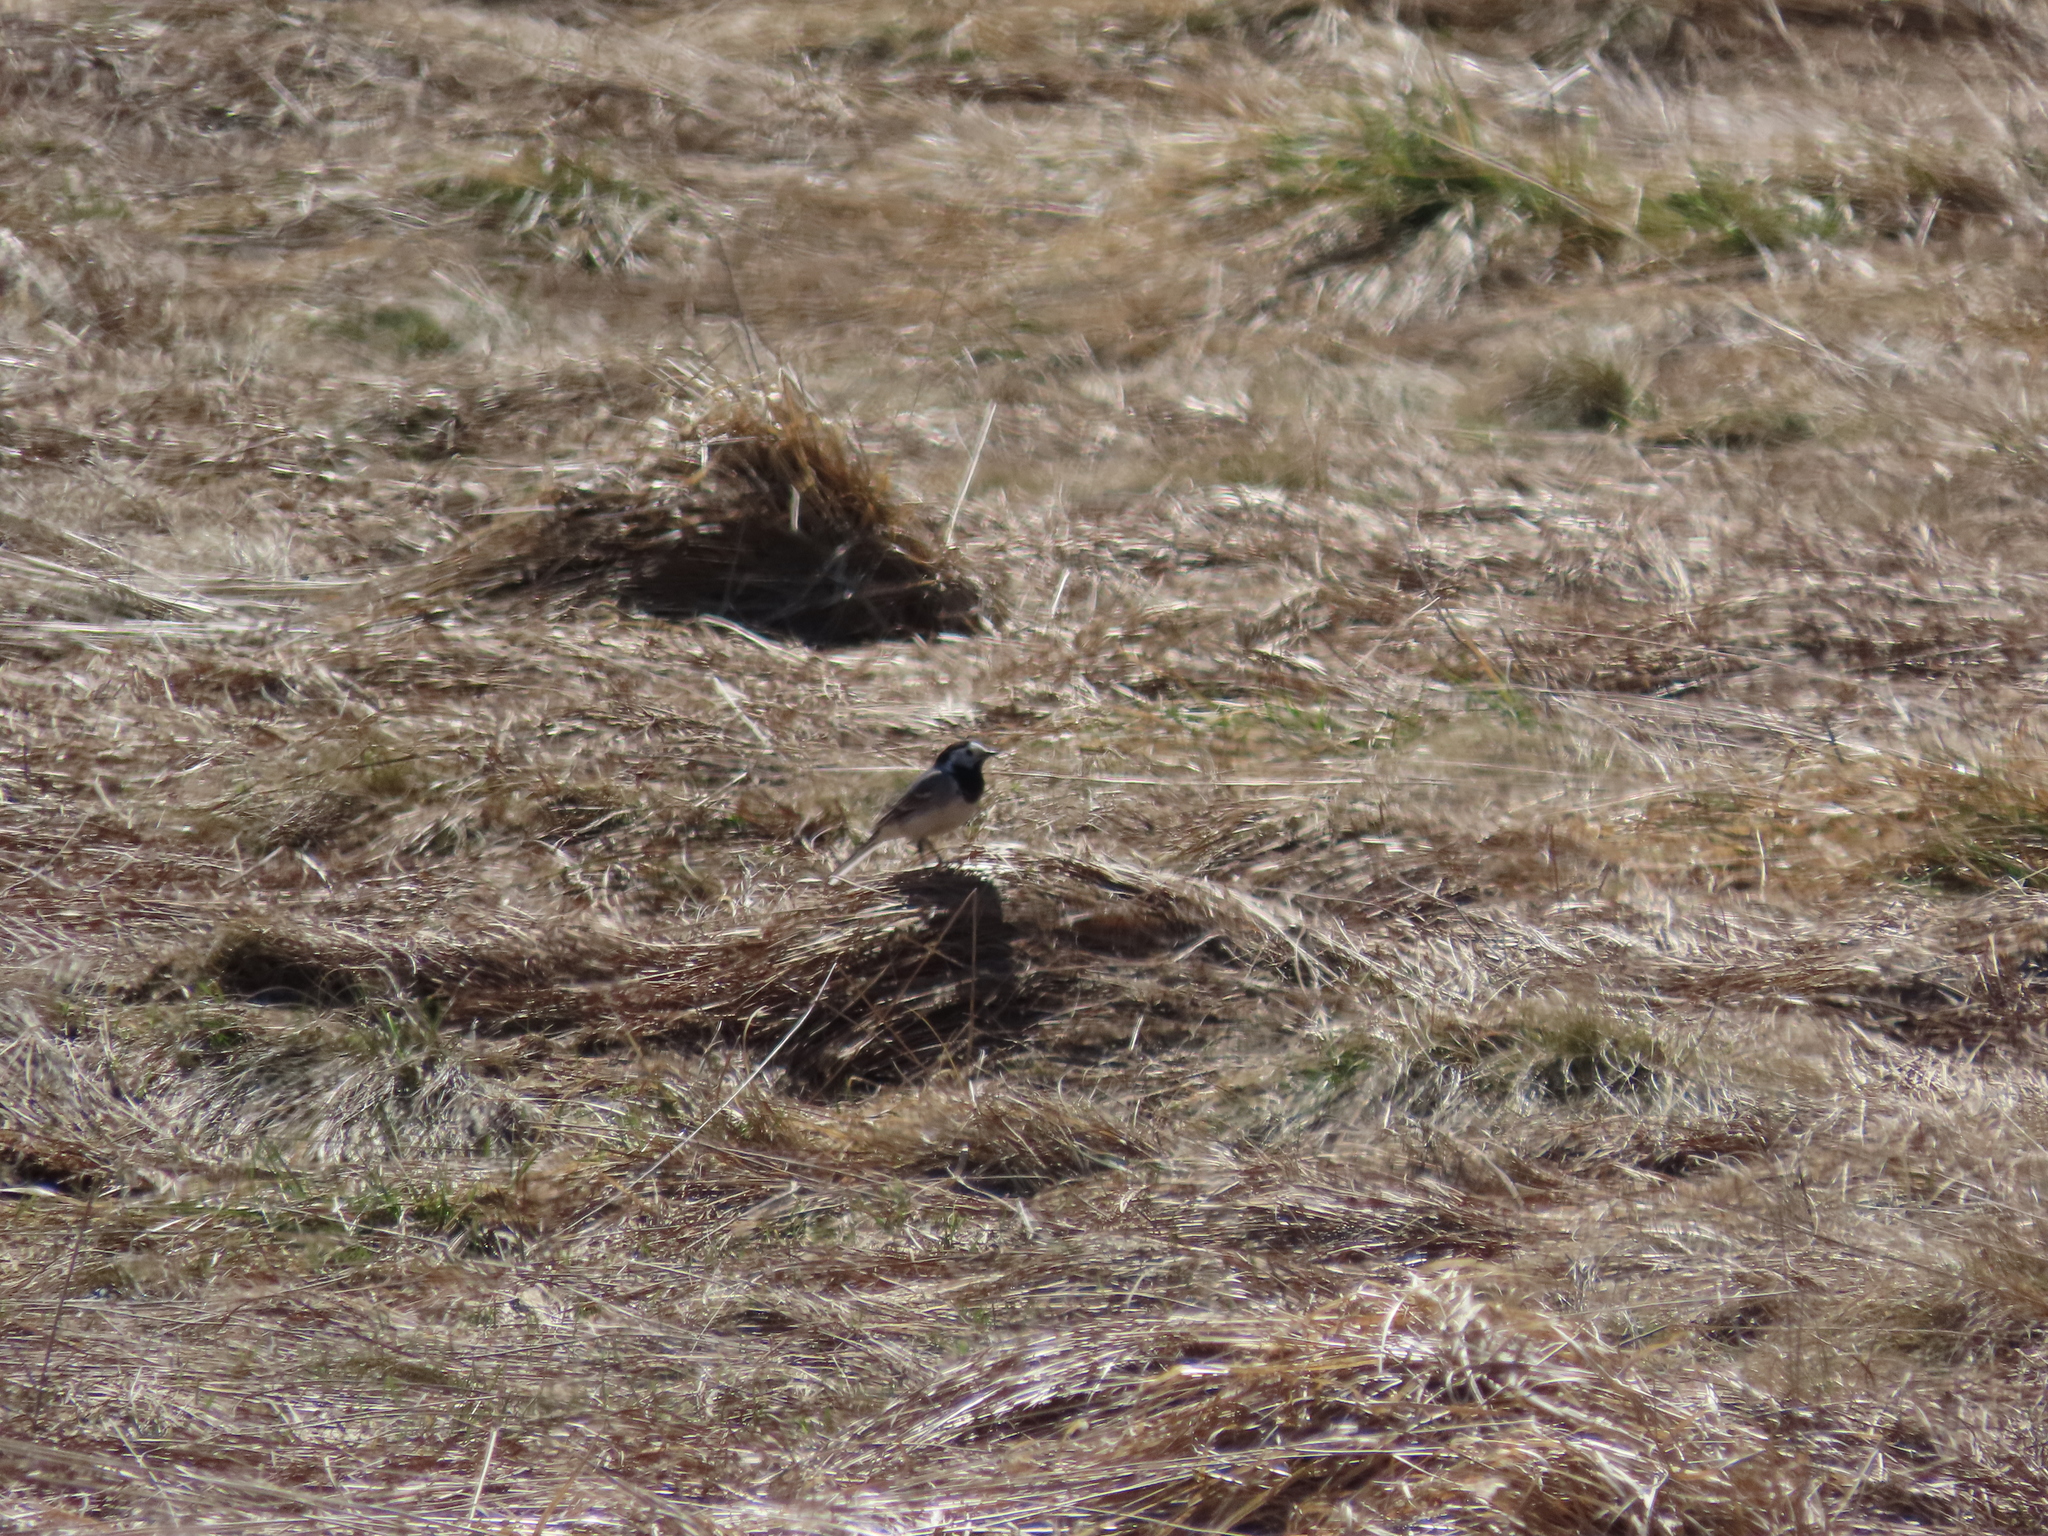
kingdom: Animalia
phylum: Chordata
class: Aves
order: Passeriformes
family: Motacillidae
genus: Motacilla
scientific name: Motacilla alba
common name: White wagtail
